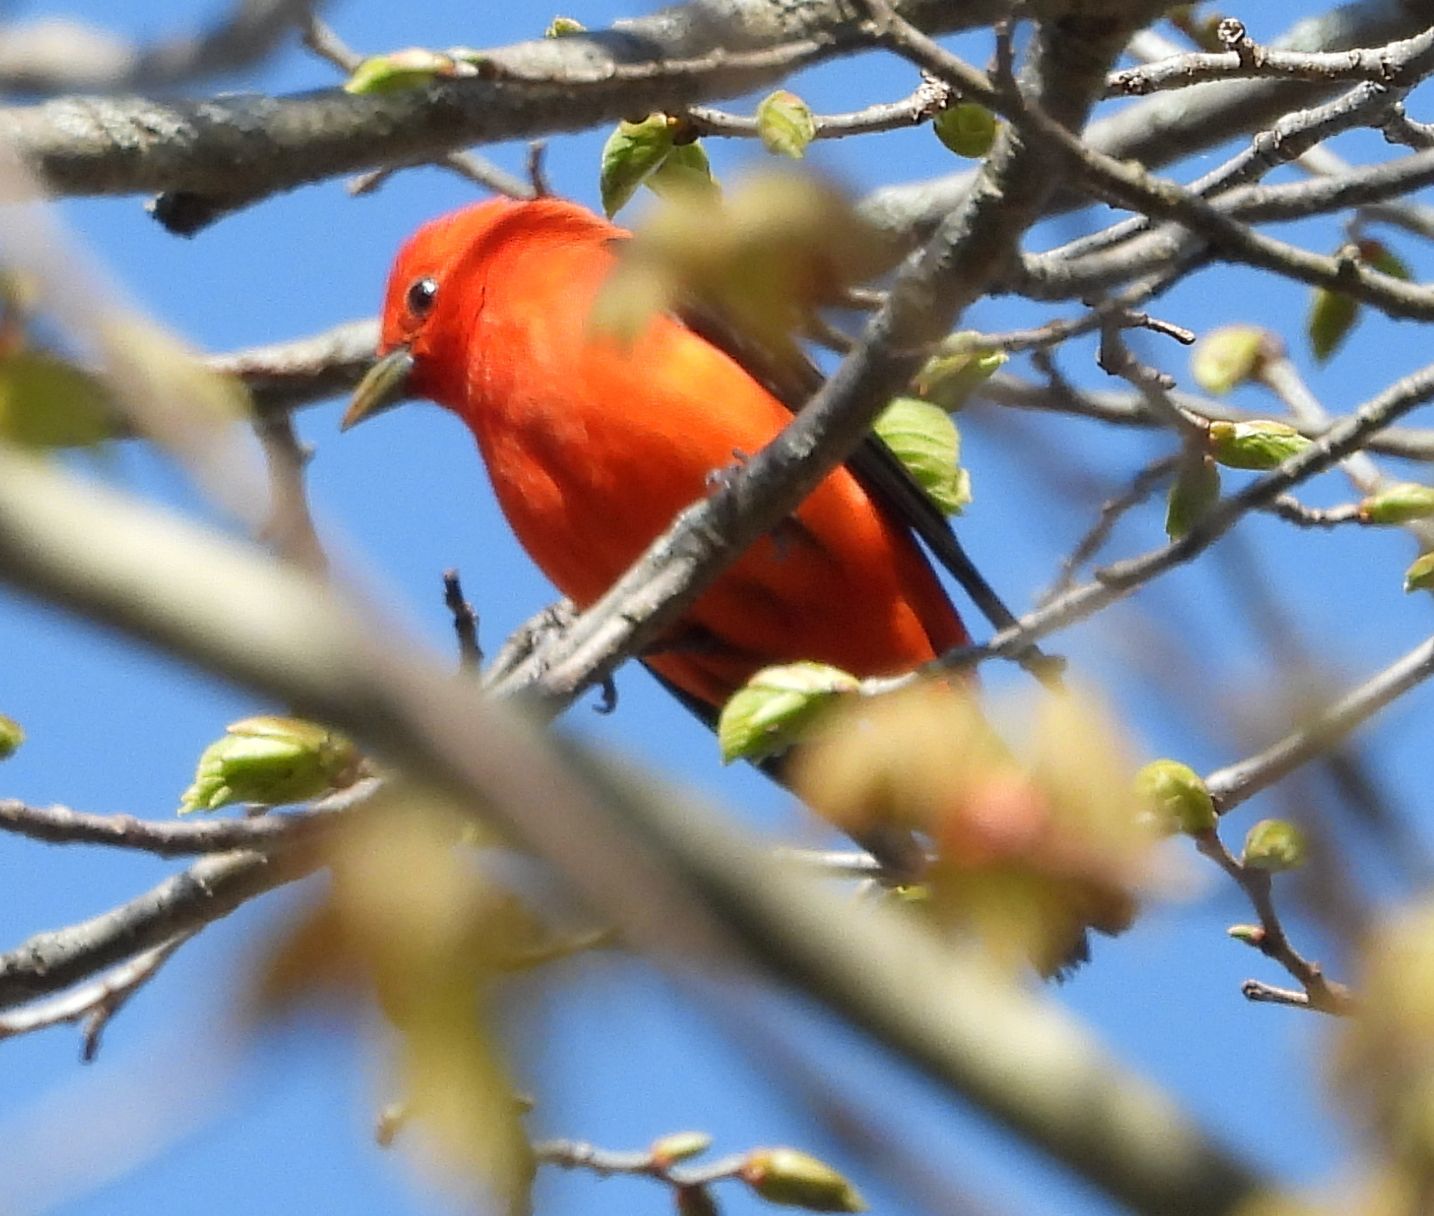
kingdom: Animalia
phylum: Chordata
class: Aves
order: Passeriformes
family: Cardinalidae
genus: Piranga
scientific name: Piranga olivacea
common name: Scarlet tanager
